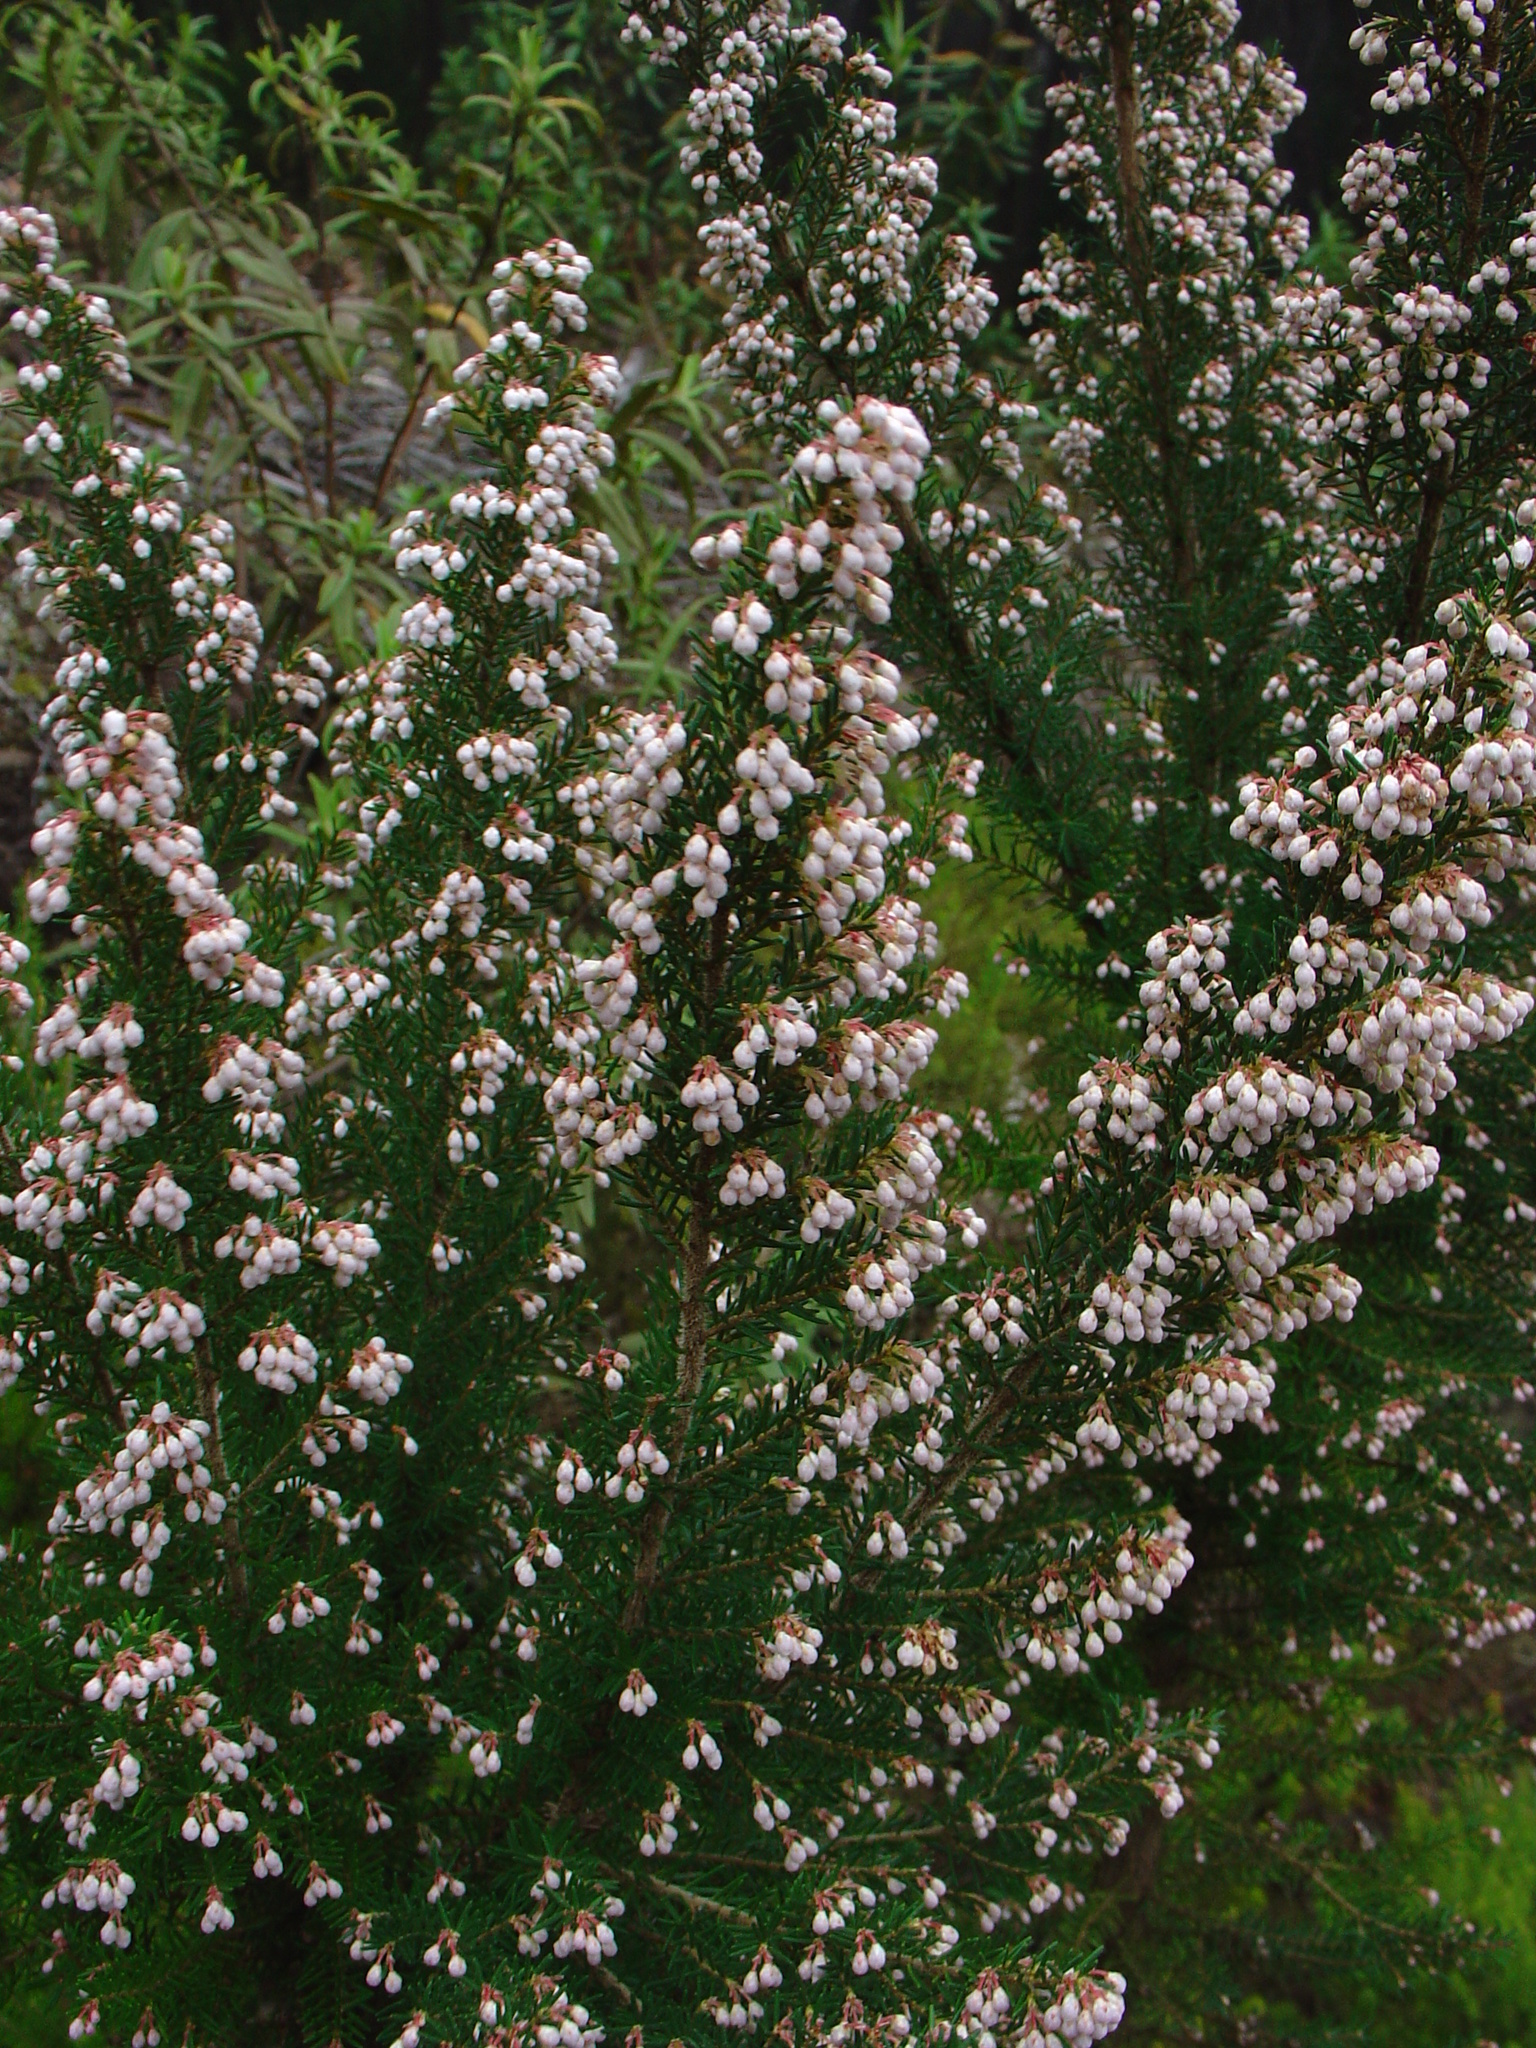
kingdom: Plantae
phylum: Tracheophyta
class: Magnoliopsida
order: Ericales
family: Ericaceae
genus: Erica
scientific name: Erica canariensis
